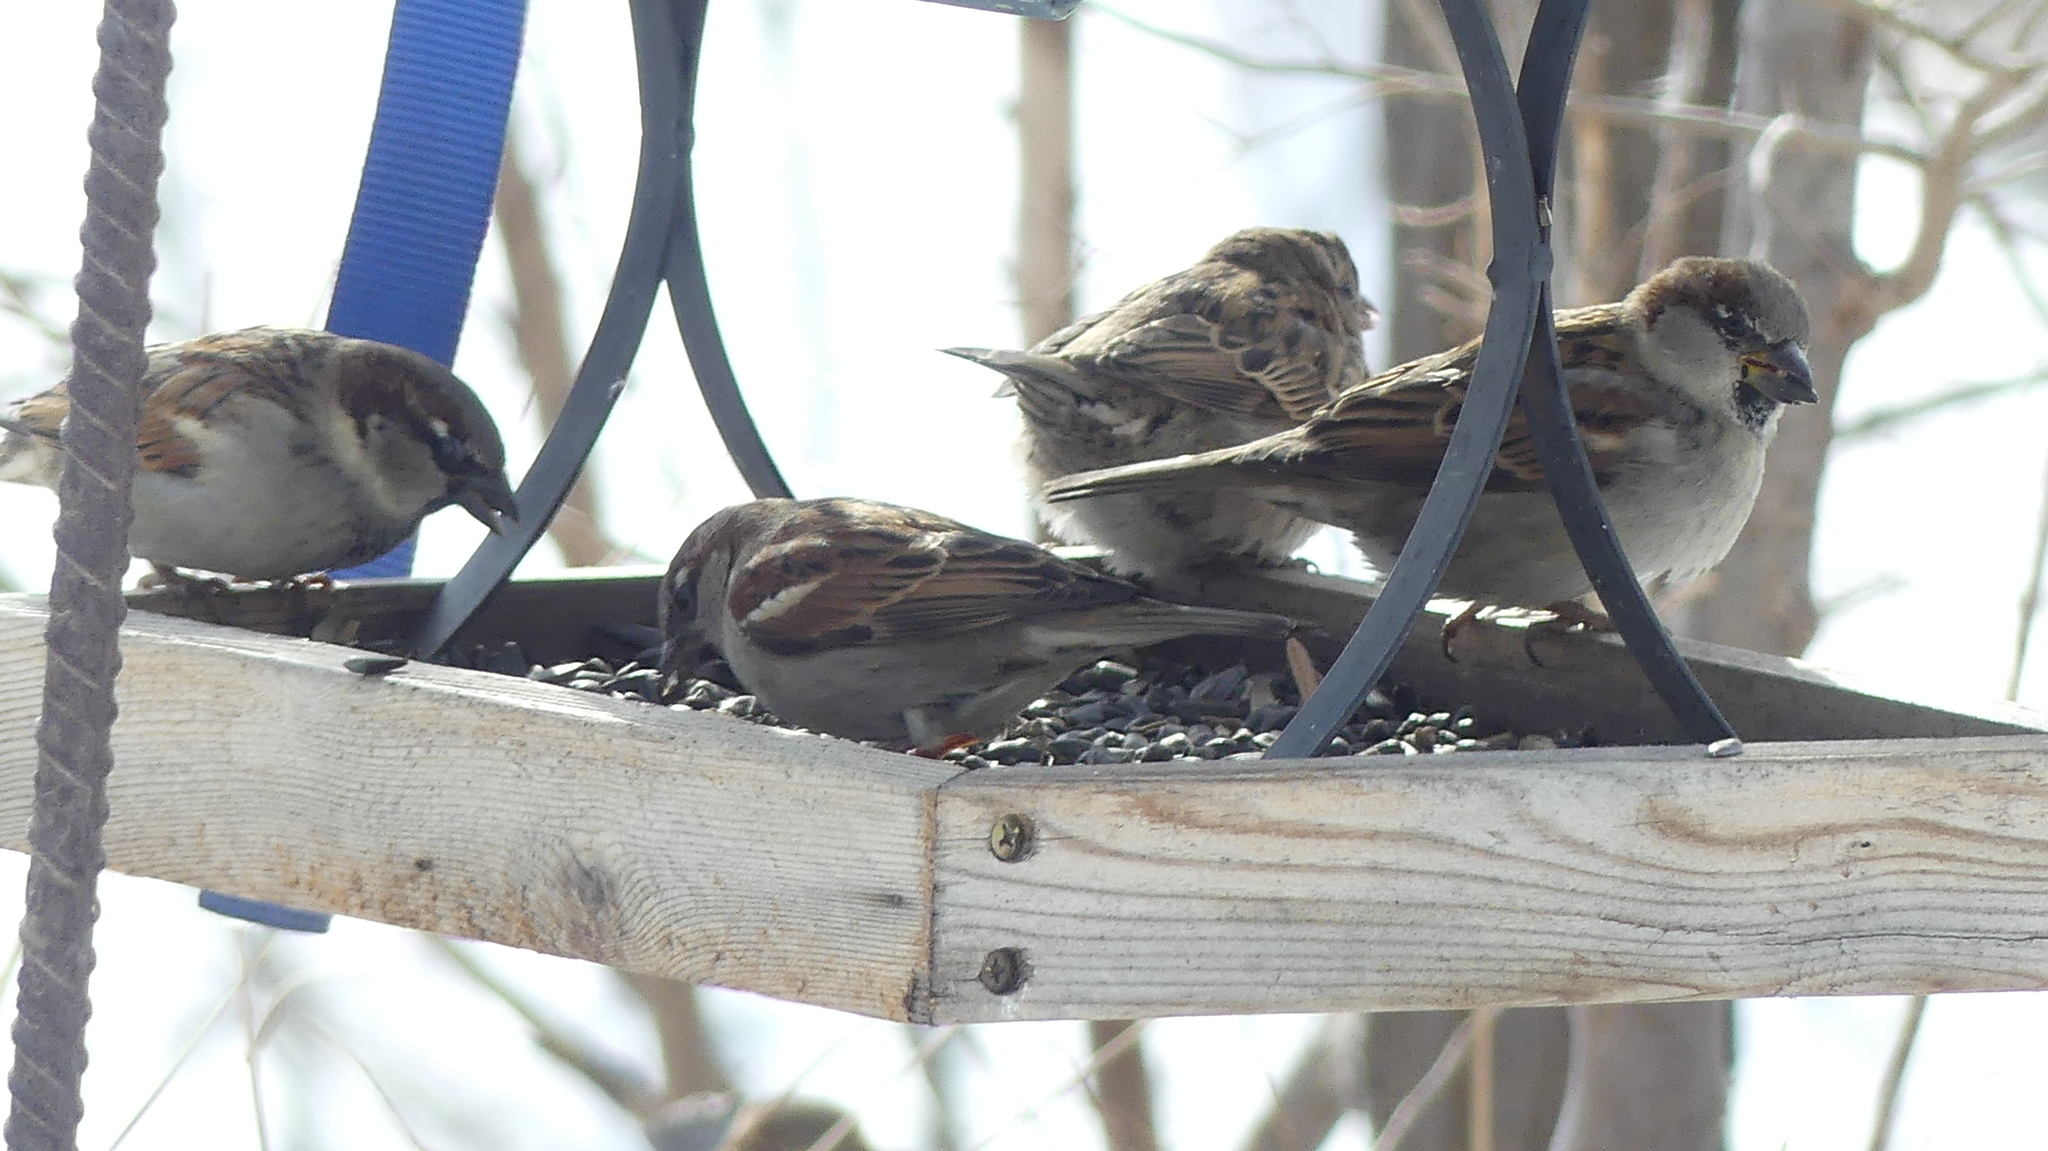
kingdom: Animalia
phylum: Chordata
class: Aves
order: Passeriformes
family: Passeridae
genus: Passer
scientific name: Passer domesticus
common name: House sparrow
